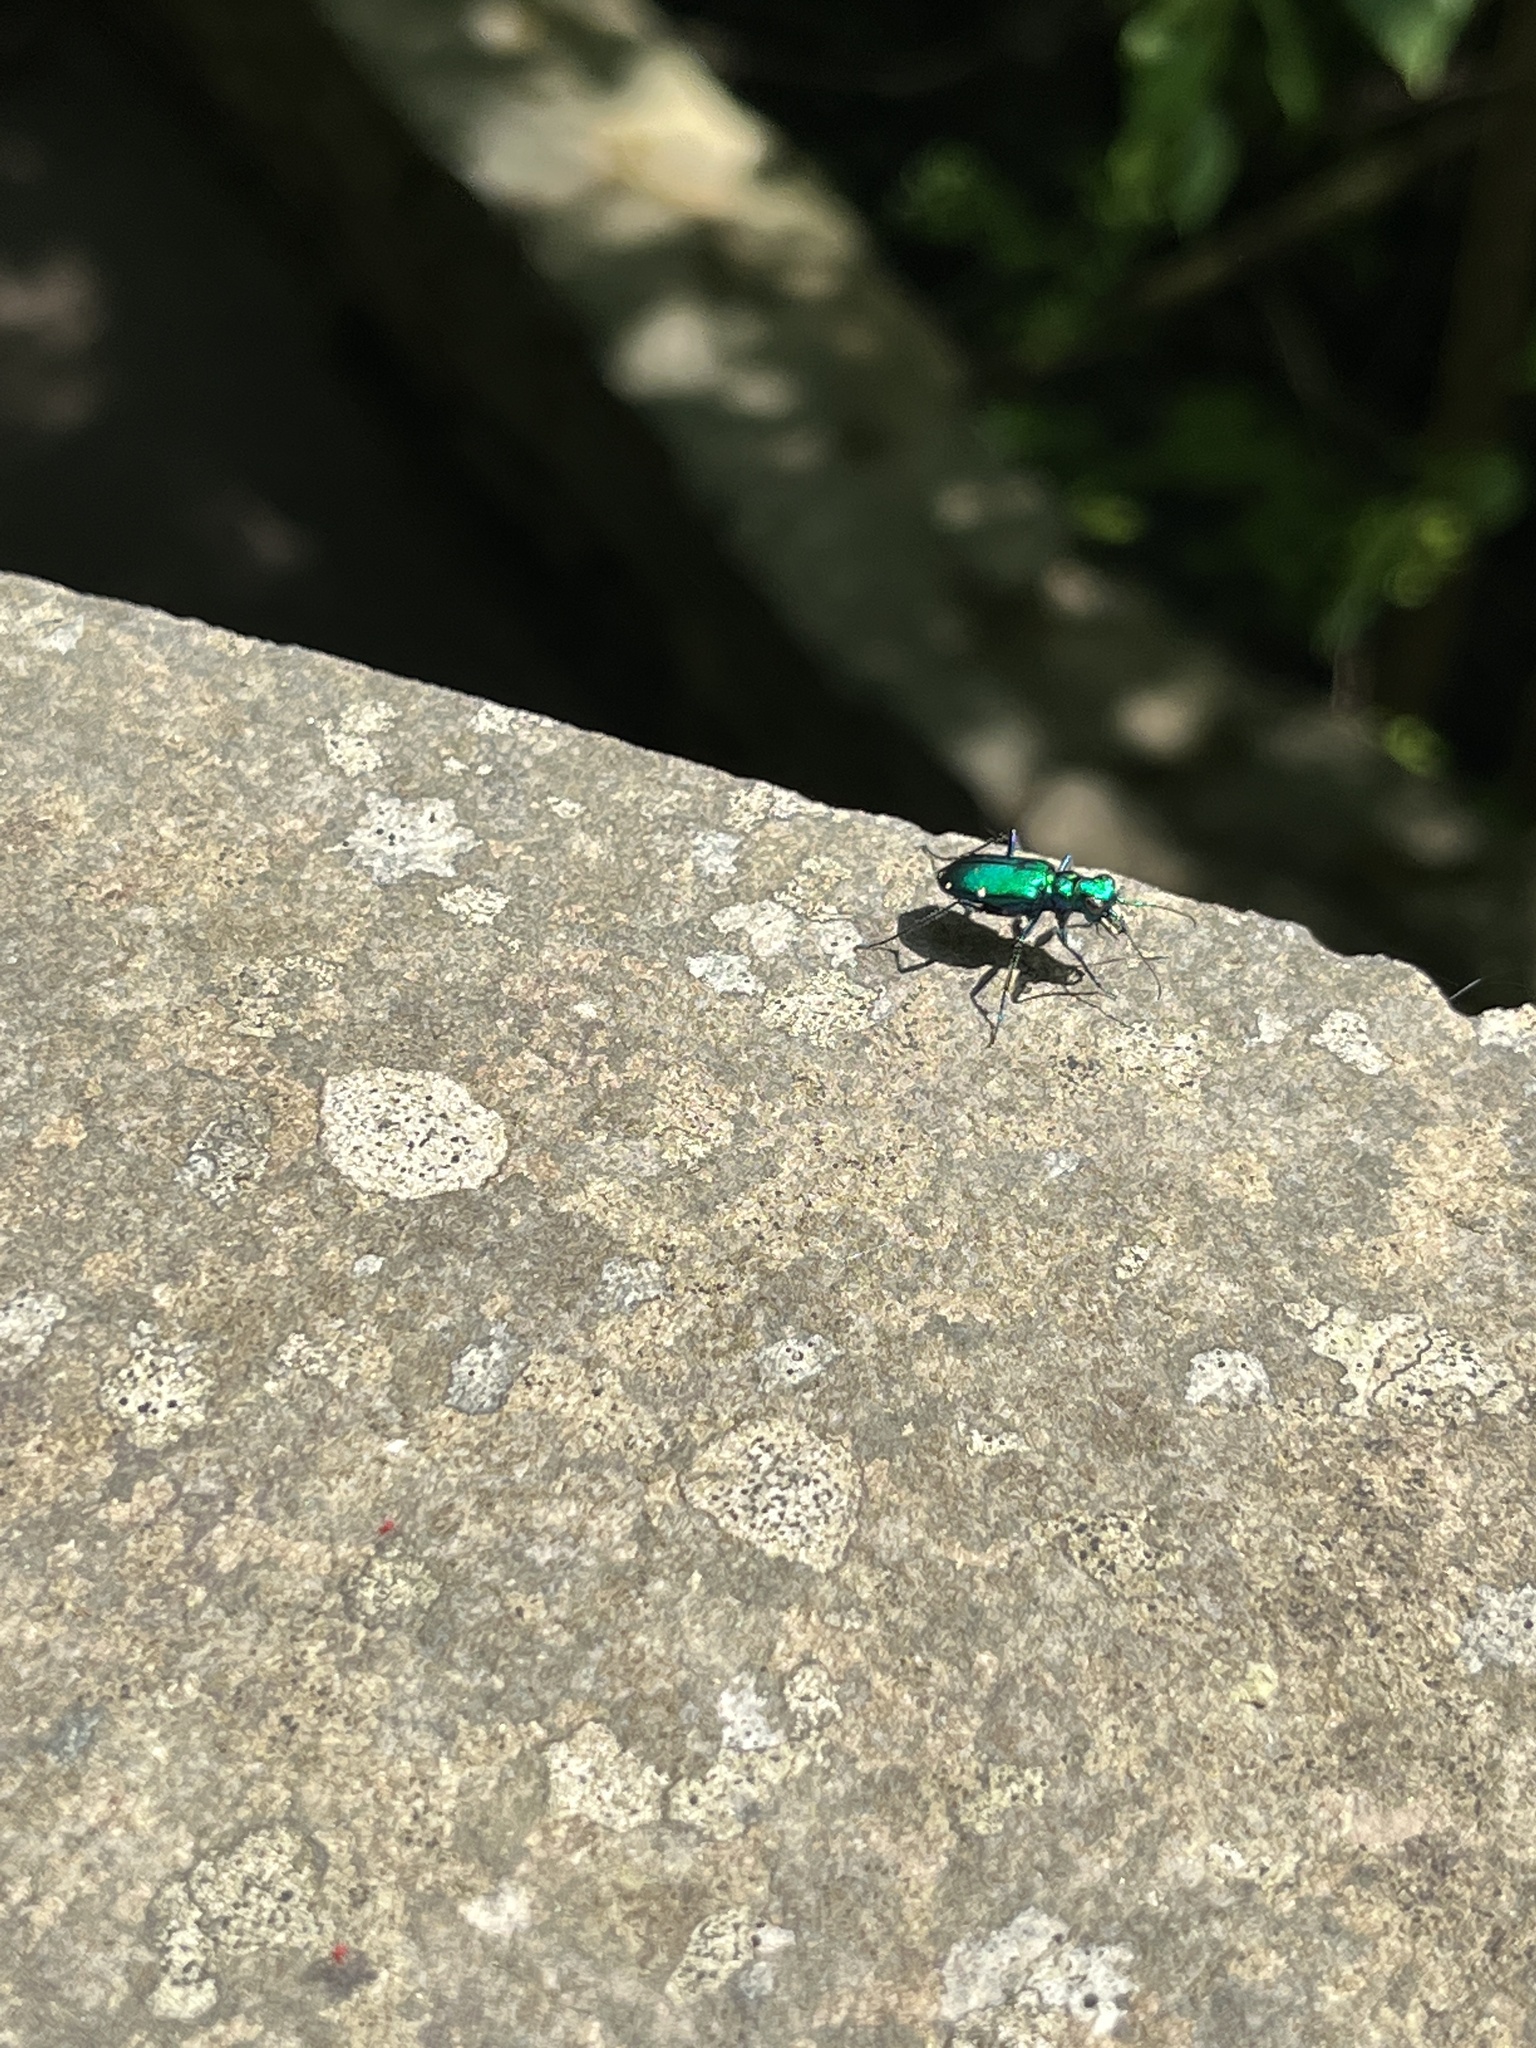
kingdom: Animalia
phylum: Arthropoda
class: Insecta
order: Coleoptera
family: Carabidae
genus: Cicindela
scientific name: Cicindela sexguttata
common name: Six-spotted tiger beetle
